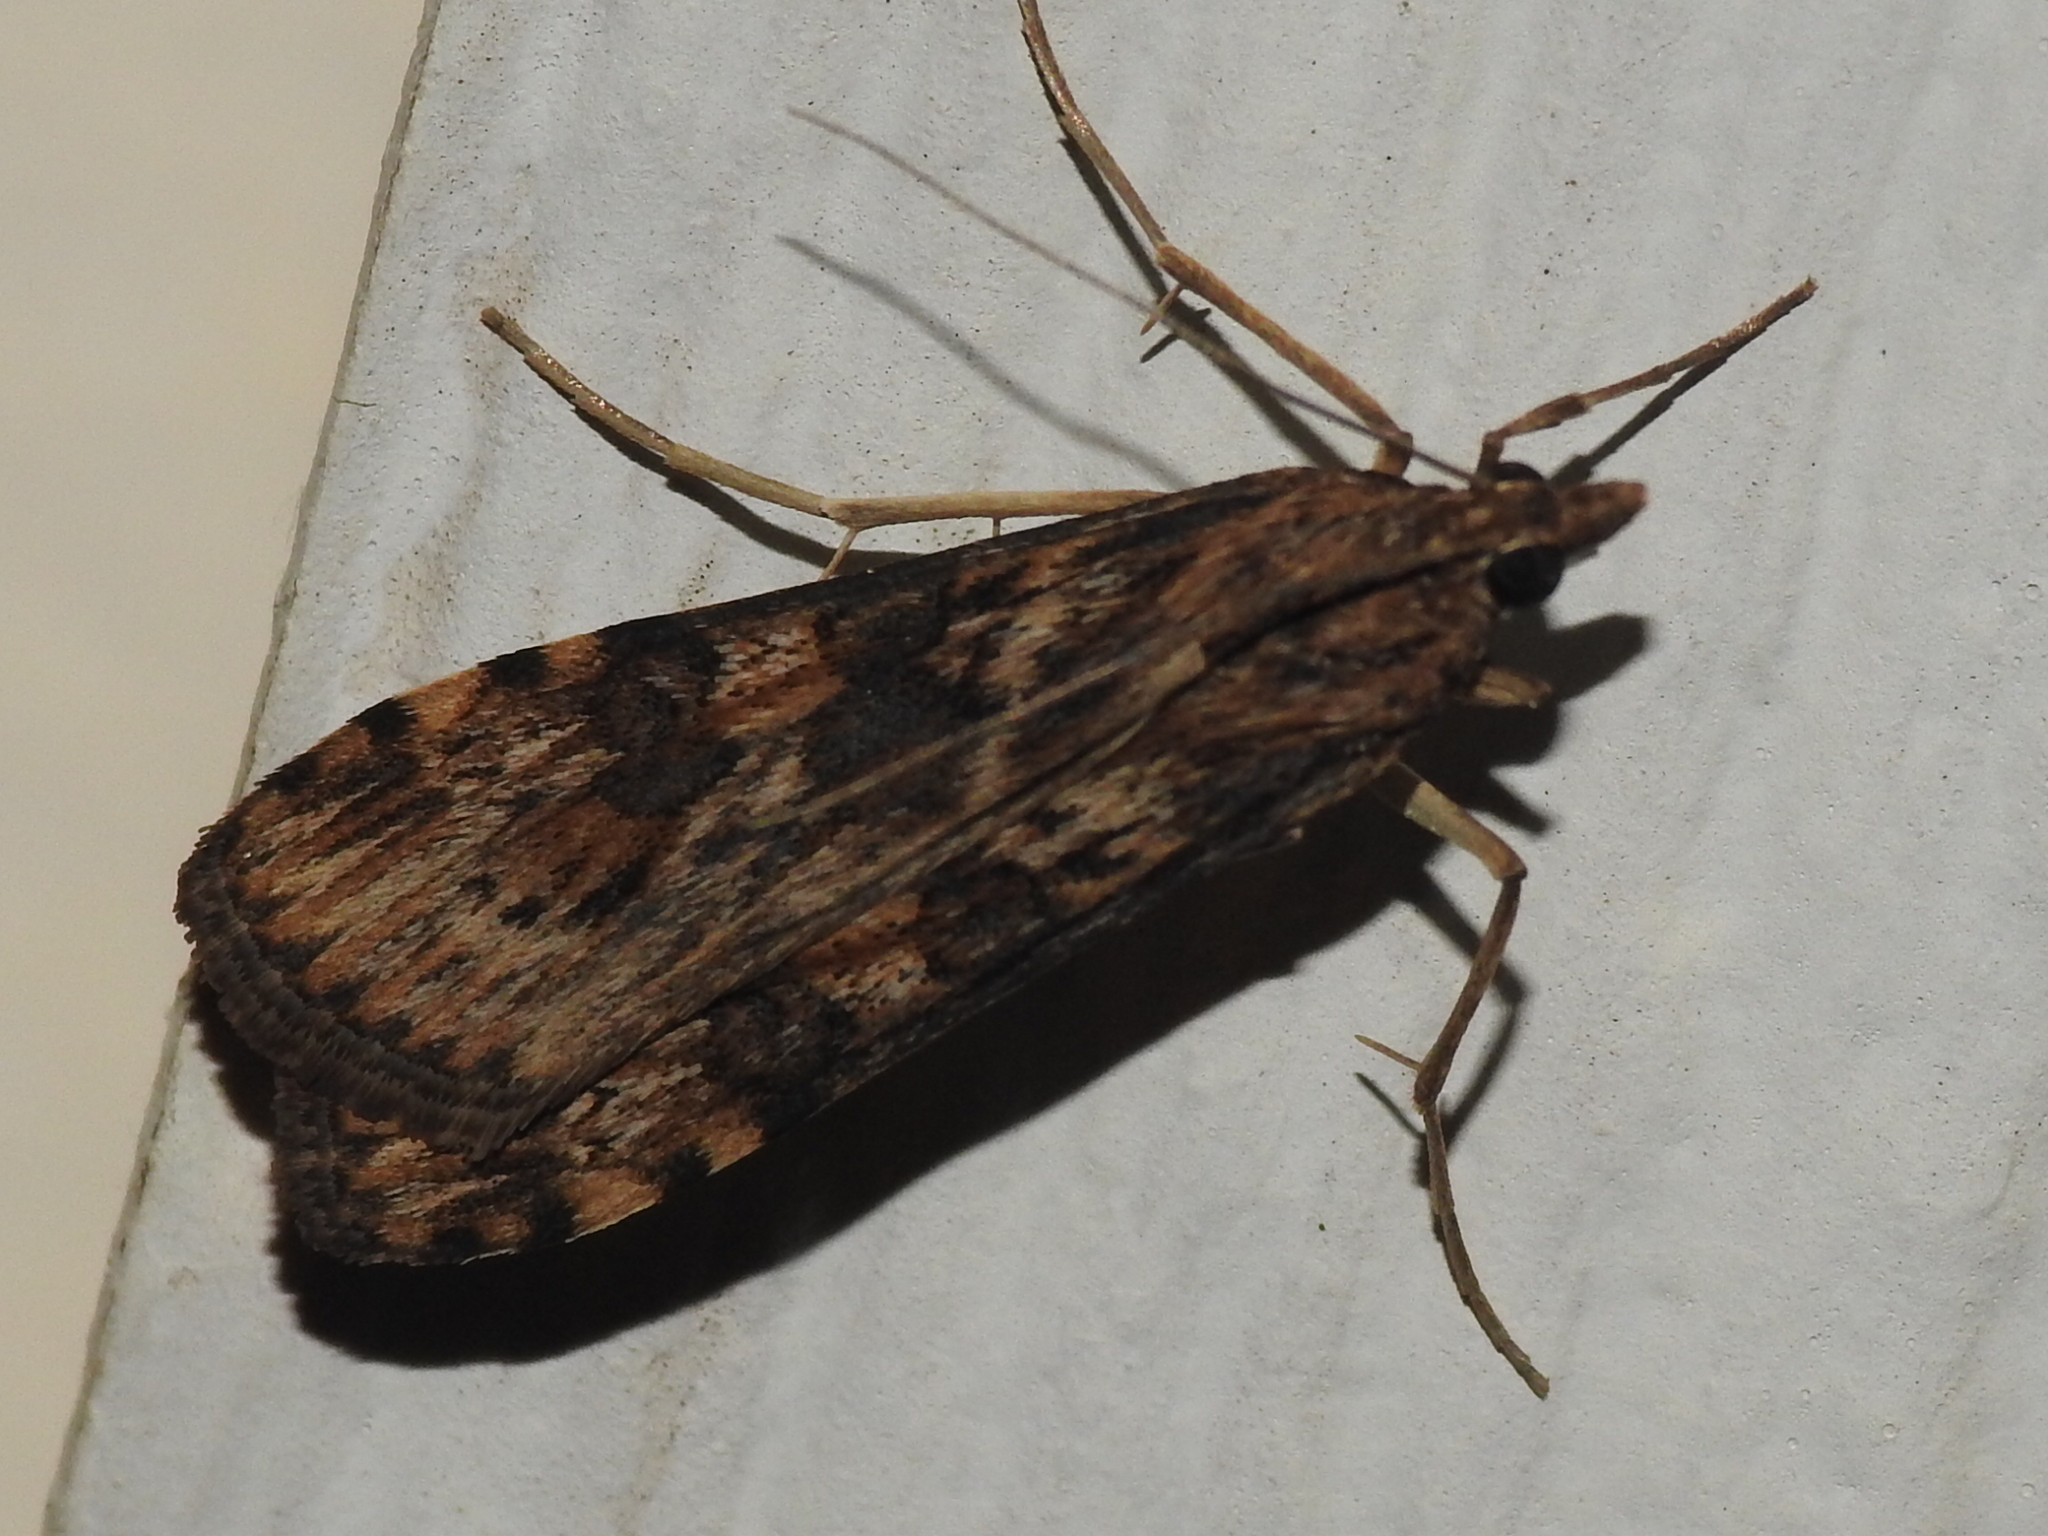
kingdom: Animalia
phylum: Arthropoda
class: Insecta
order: Lepidoptera
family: Crambidae
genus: Nomophila
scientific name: Nomophila nearctica
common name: American rush veneer
